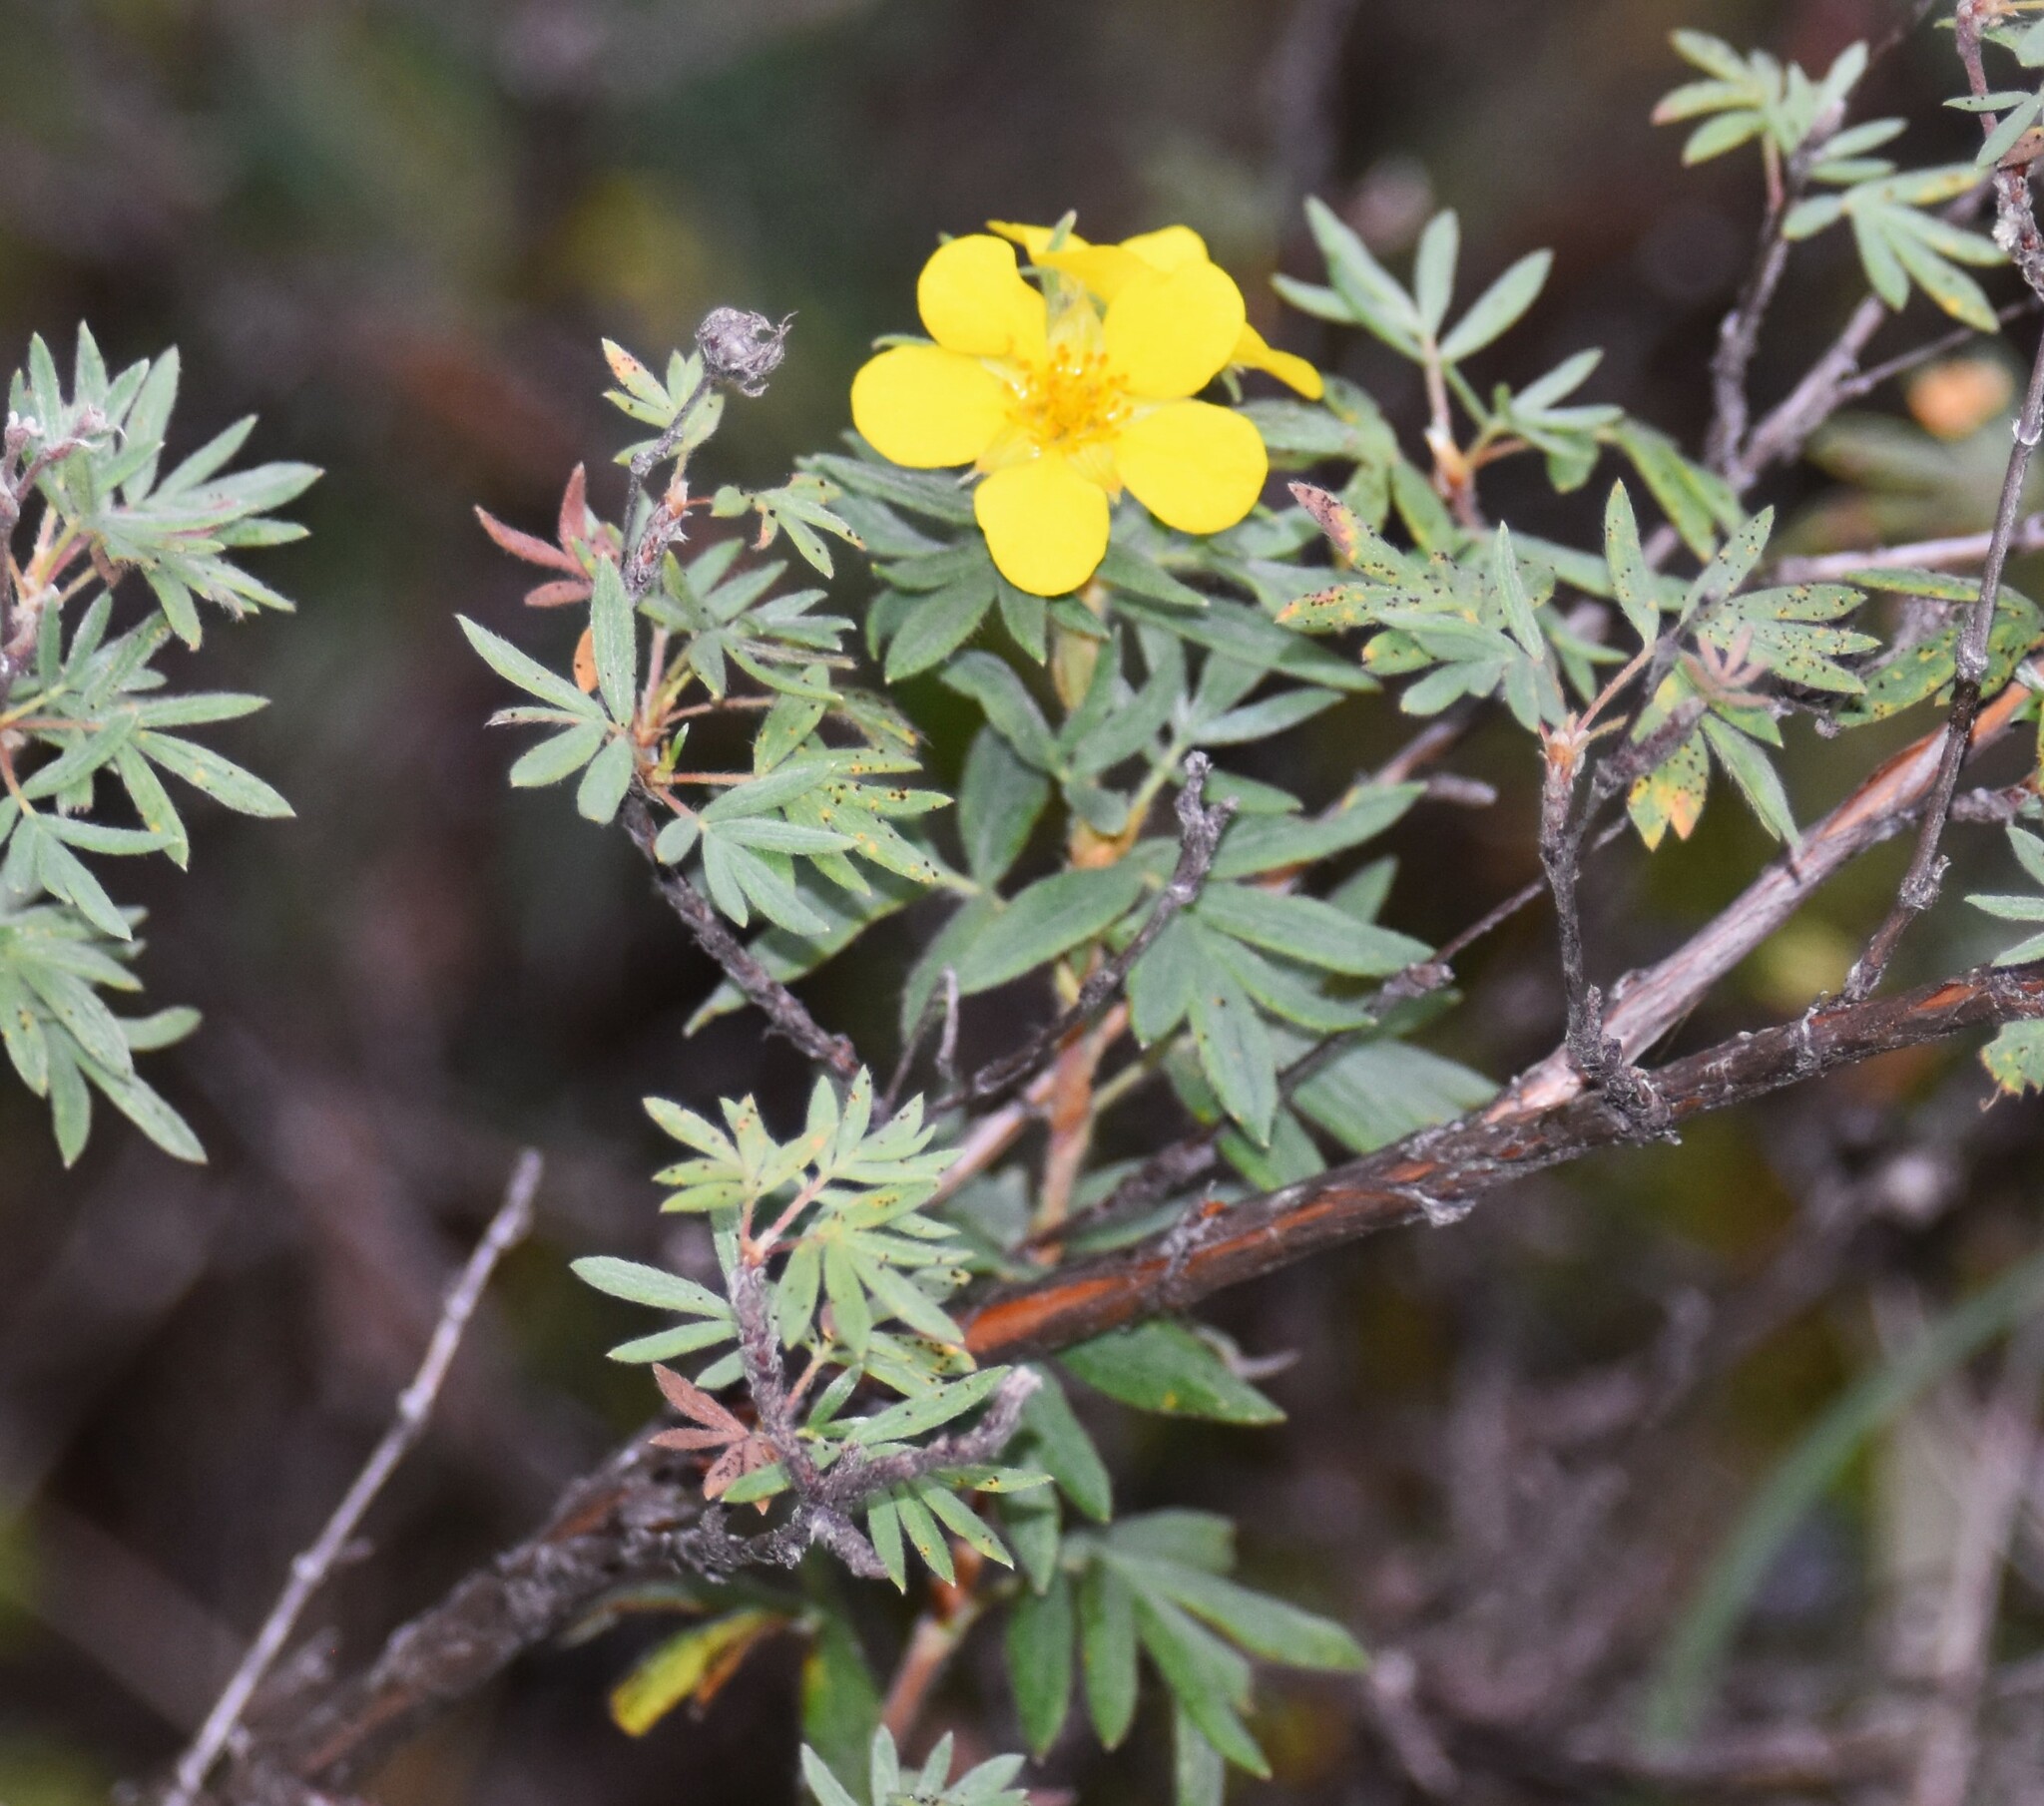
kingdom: Plantae
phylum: Tracheophyta
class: Magnoliopsida
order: Rosales
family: Rosaceae
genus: Dasiphora
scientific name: Dasiphora fruticosa
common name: Shrubby cinquefoil
